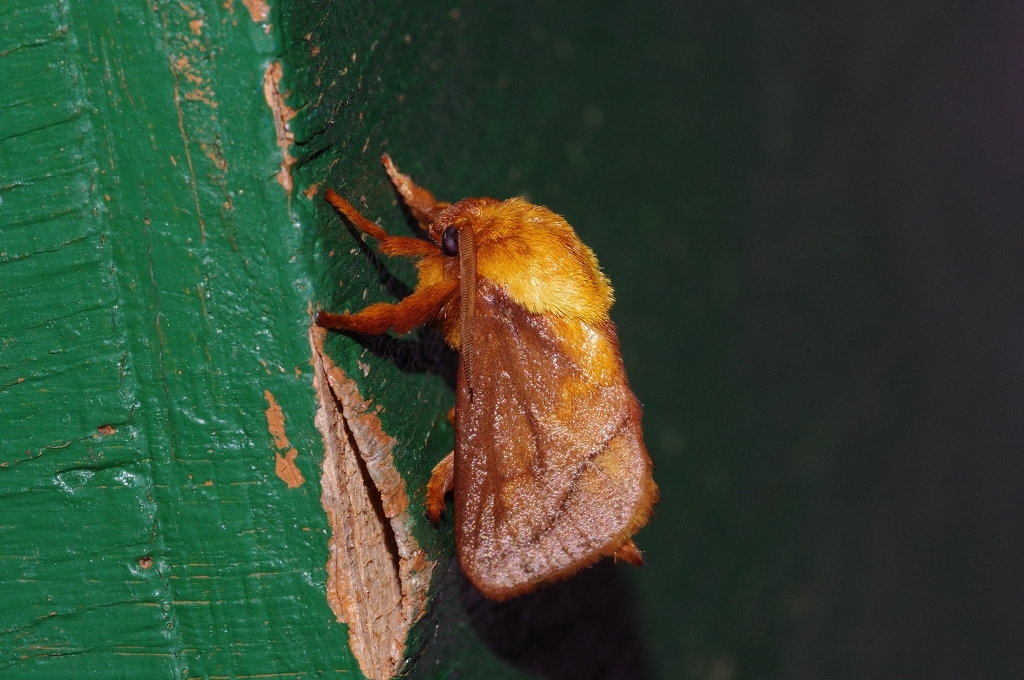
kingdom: Animalia
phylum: Arthropoda
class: Insecta
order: Lepidoptera
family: Limacodidae
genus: Narosoideus
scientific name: Narosoideus ochridorsalis
